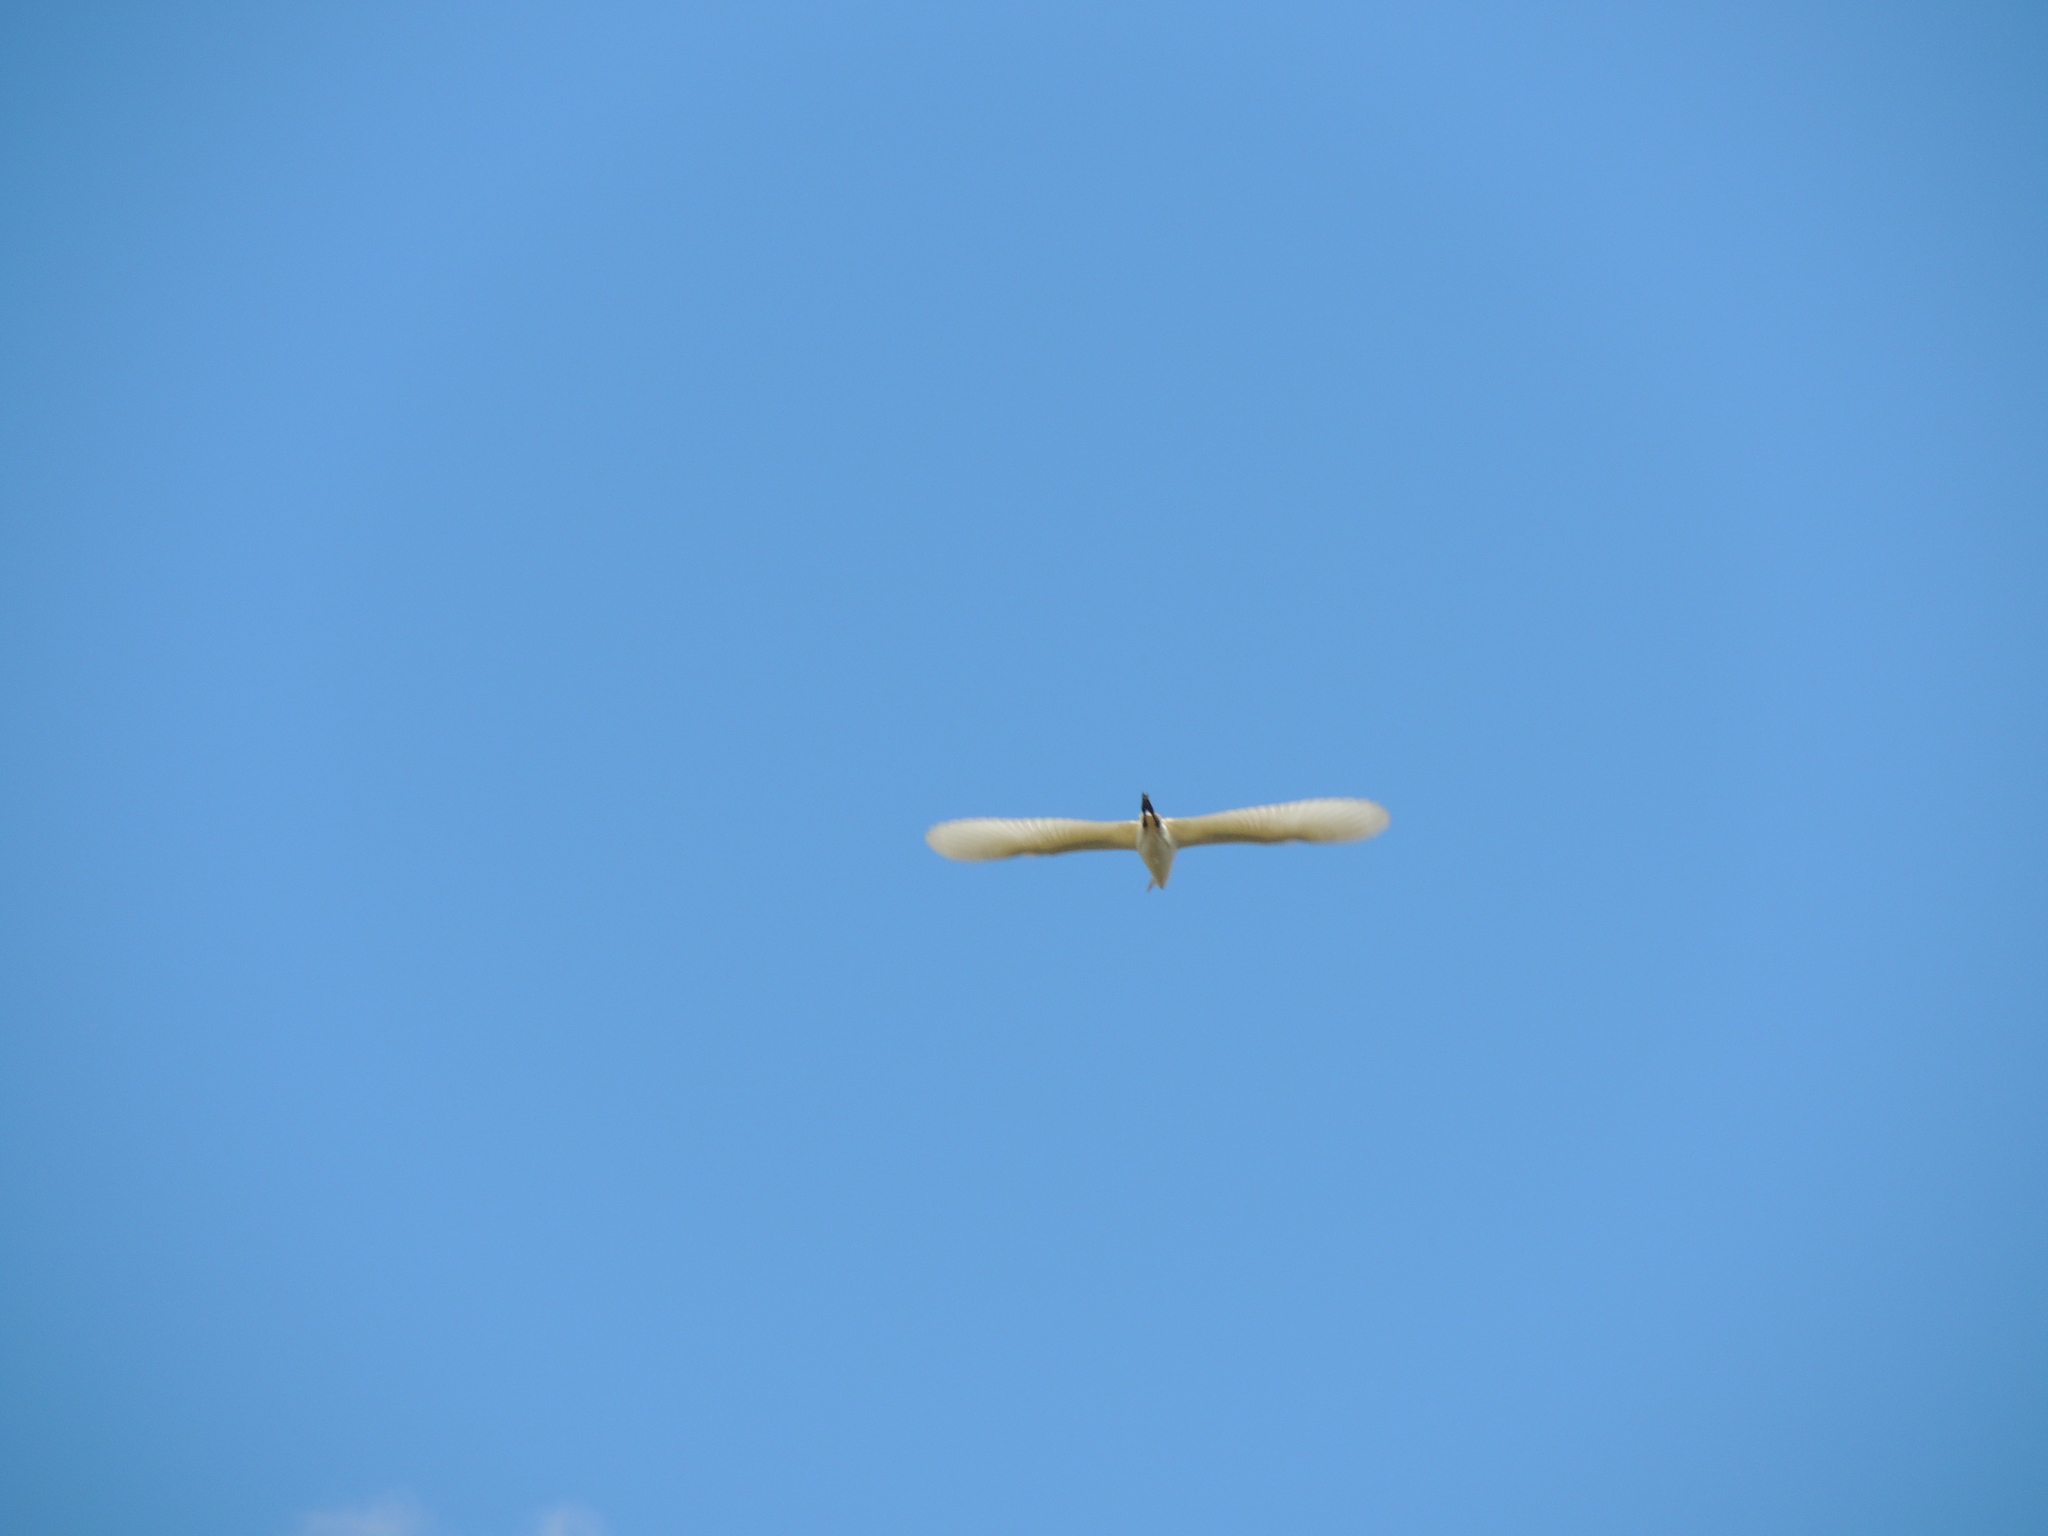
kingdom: Animalia
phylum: Chordata
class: Aves
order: Pelecaniformes
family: Ardeidae
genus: Egretta
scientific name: Egretta thula
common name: Snowy egret
